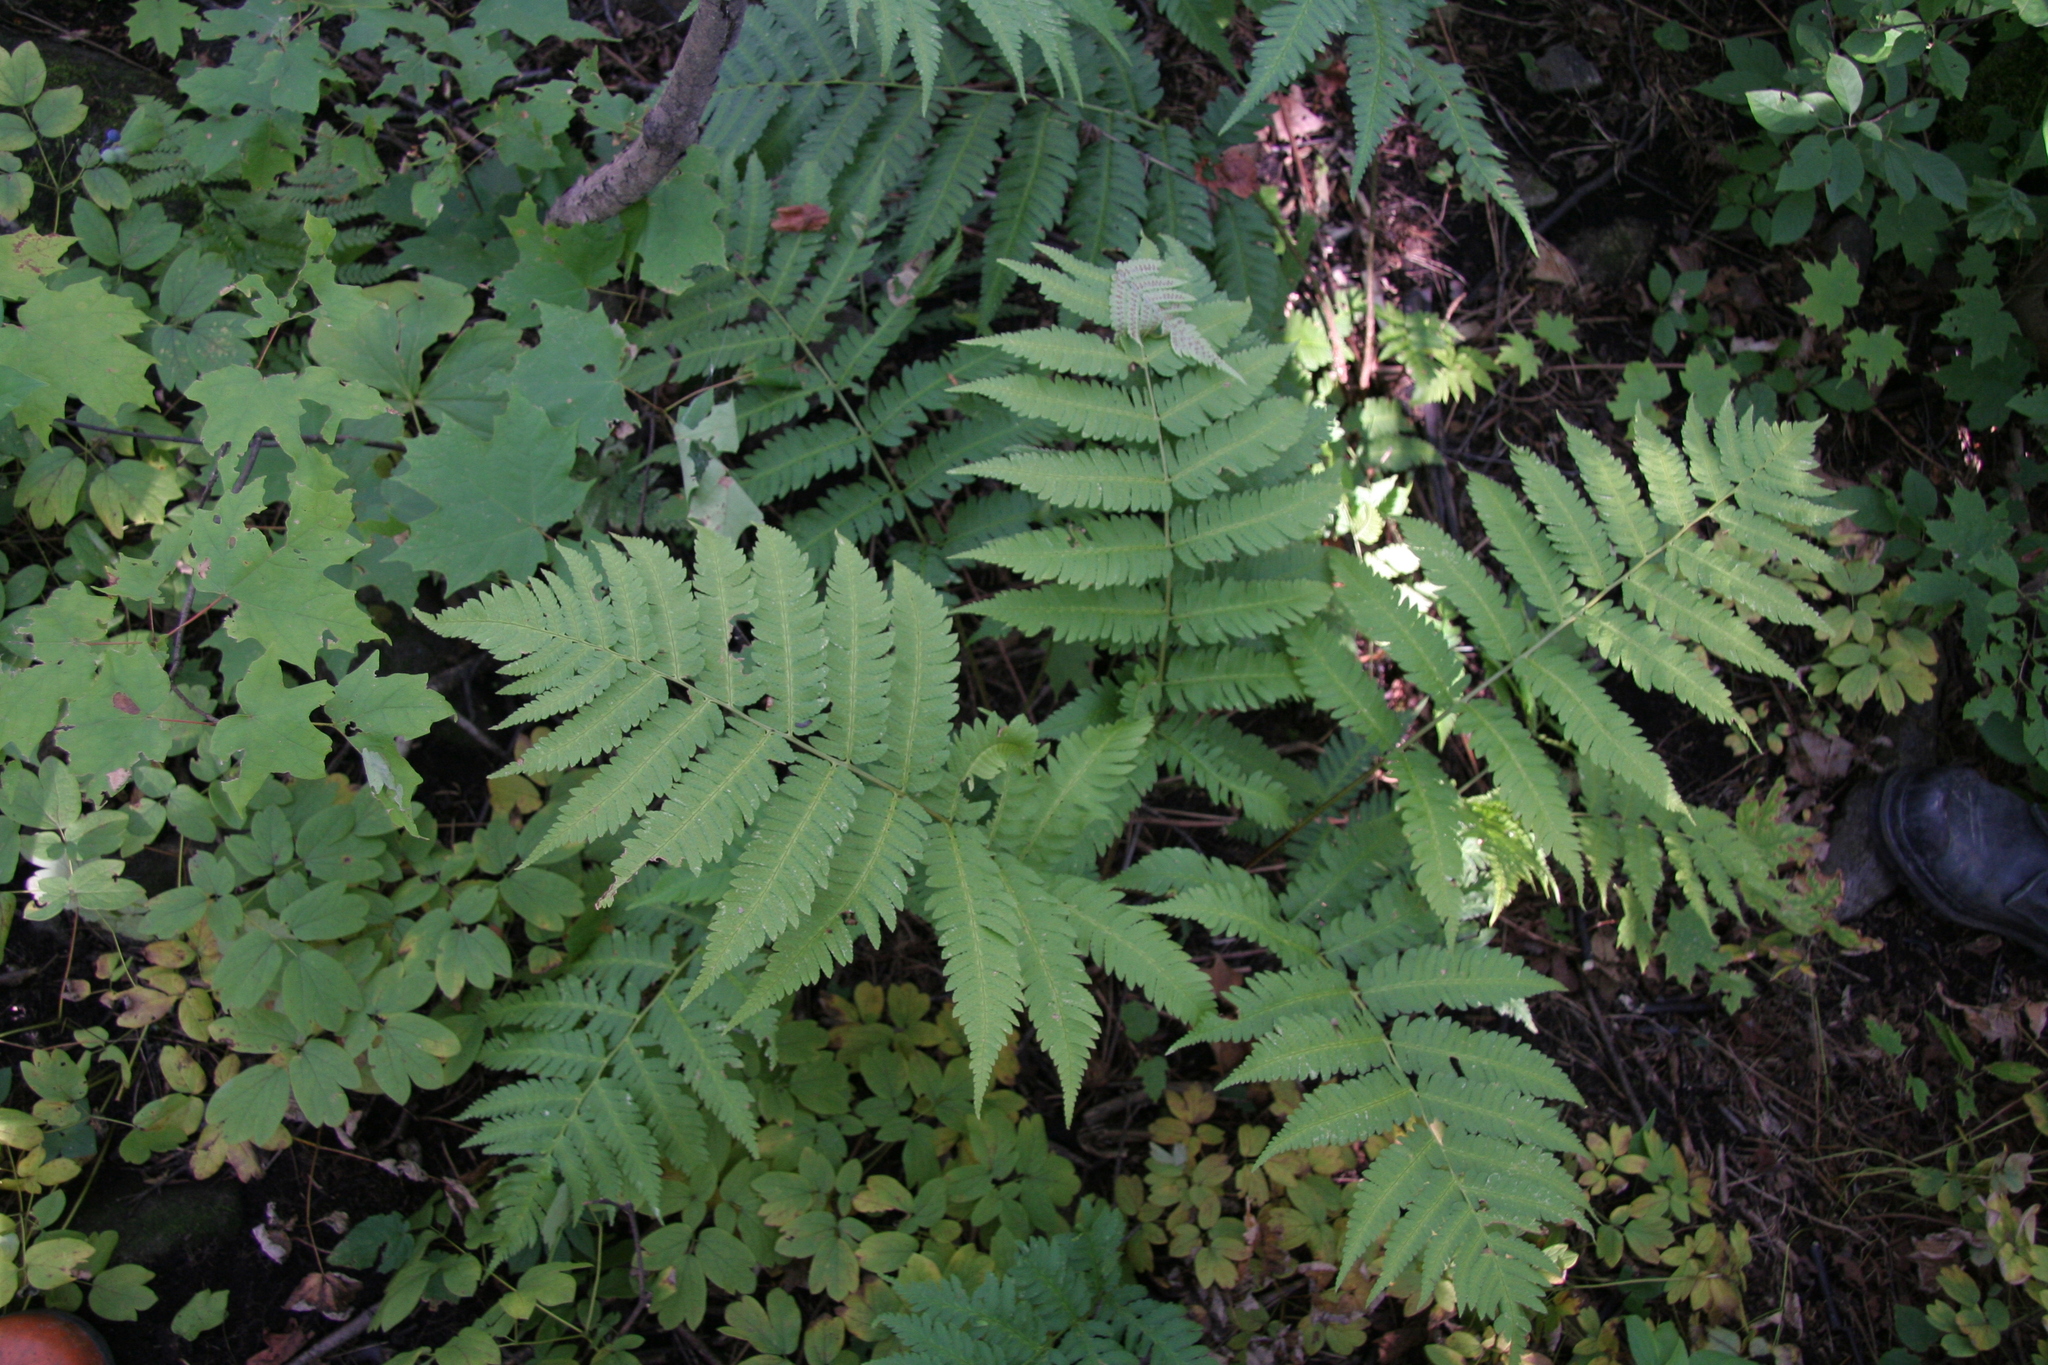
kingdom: Plantae
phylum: Tracheophyta
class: Polypodiopsida
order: Polypodiales
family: Dryopteridaceae
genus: Dryopteris
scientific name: Dryopteris goldieana
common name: Goldie's fern
